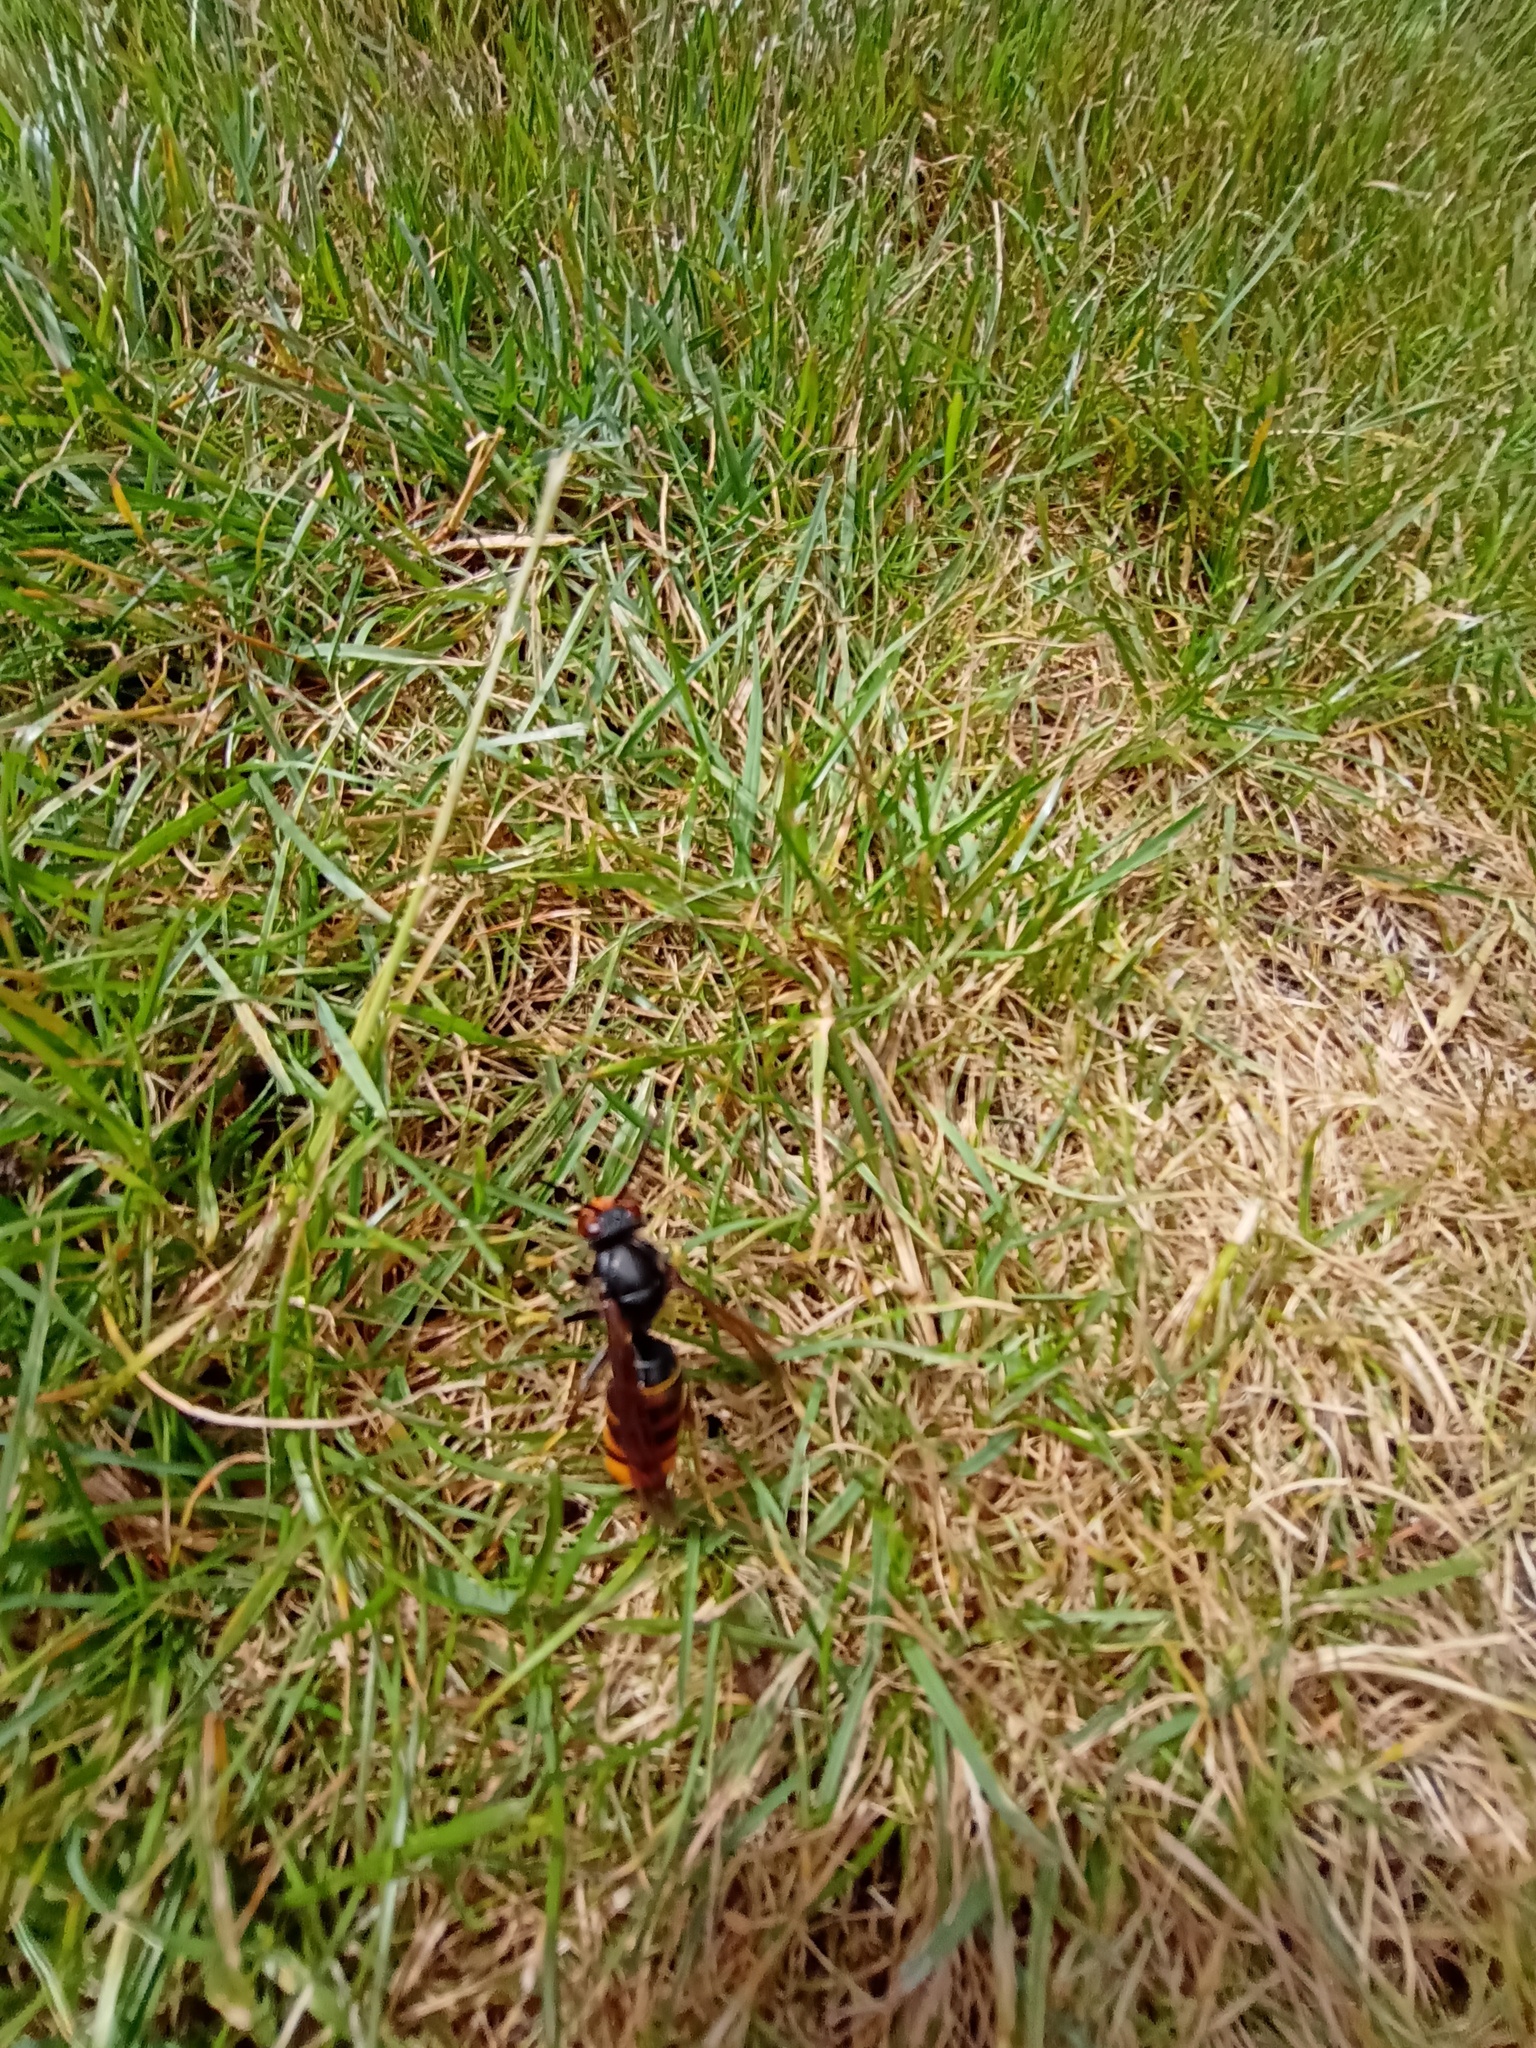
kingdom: Animalia
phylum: Arthropoda
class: Insecta
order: Hymenoptera
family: Vespidae
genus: Vespa
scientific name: Vespa velutina
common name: Asian hornet
